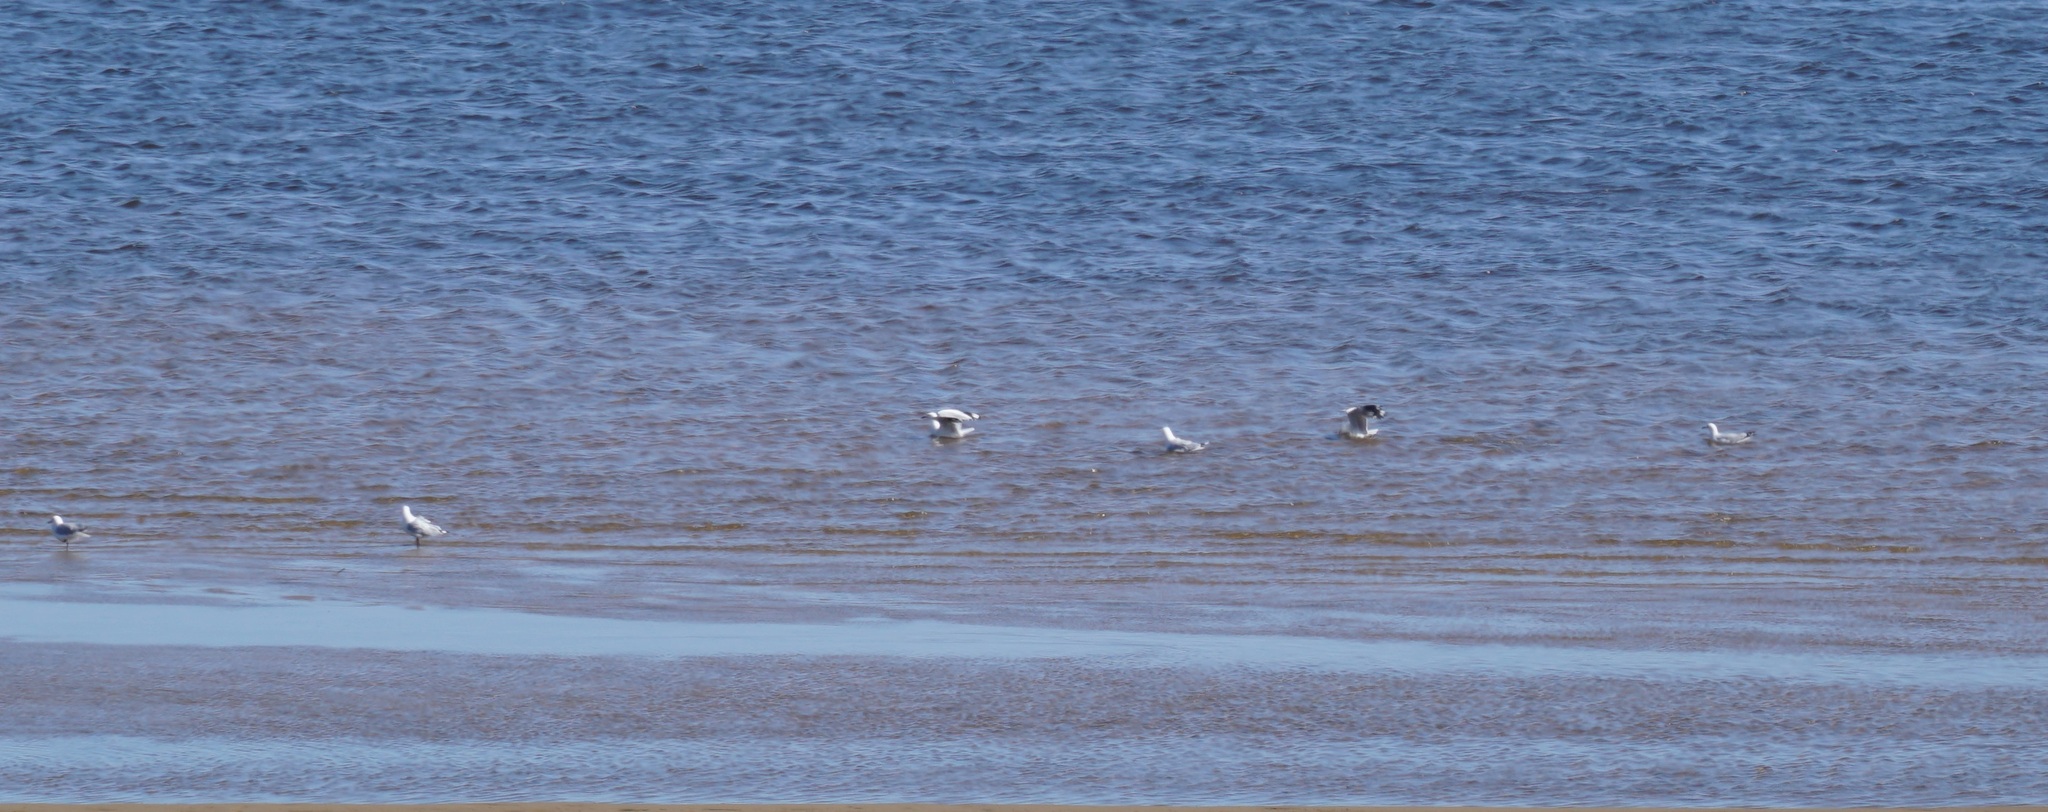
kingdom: Animalia
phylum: Chordata
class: Aves
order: Charadriiformes
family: Laridae
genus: Chroicocephalus
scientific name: Chroicocephalus novaehollandiae
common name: Silver gull
